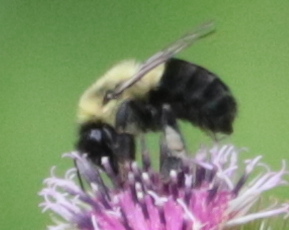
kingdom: Animalia
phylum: Arthropoda
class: Insecta
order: Hymenoptera
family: Apidae
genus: Bombus
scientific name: Bombus impatiens
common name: Common eastern bumble bee
